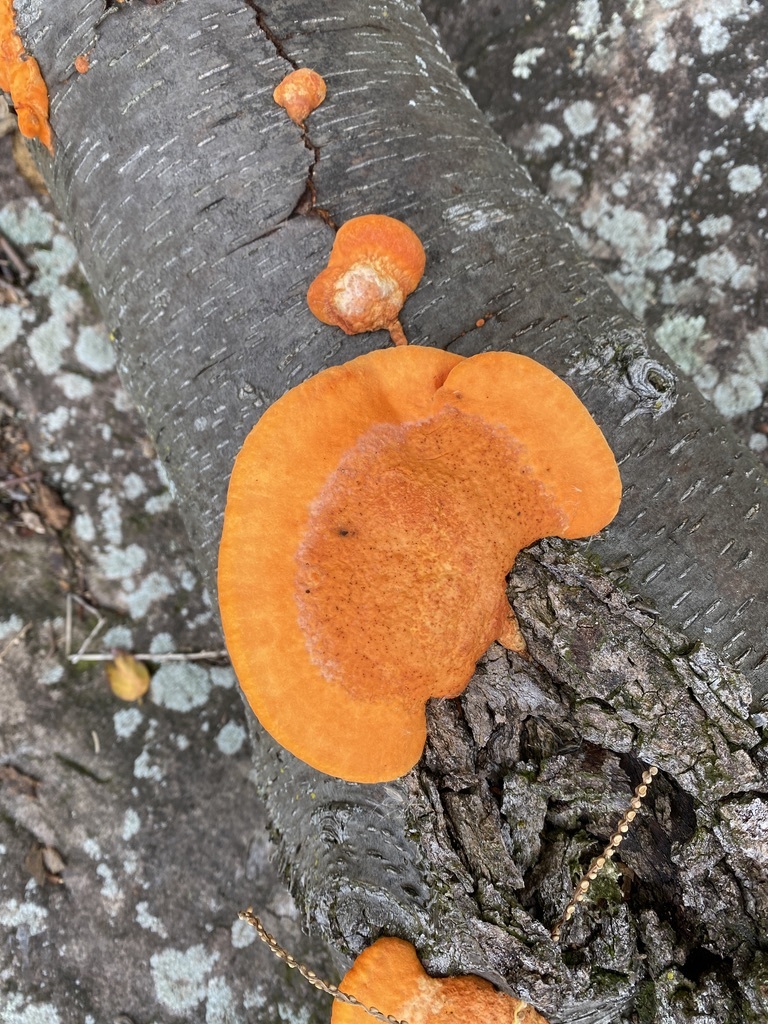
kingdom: Fungi
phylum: Basidiomycota
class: Agaricomycetes
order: Polyporales
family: Polyporaceae
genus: Trametes
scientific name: Trametes cinnabarina
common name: Northern cinnabar polypore
